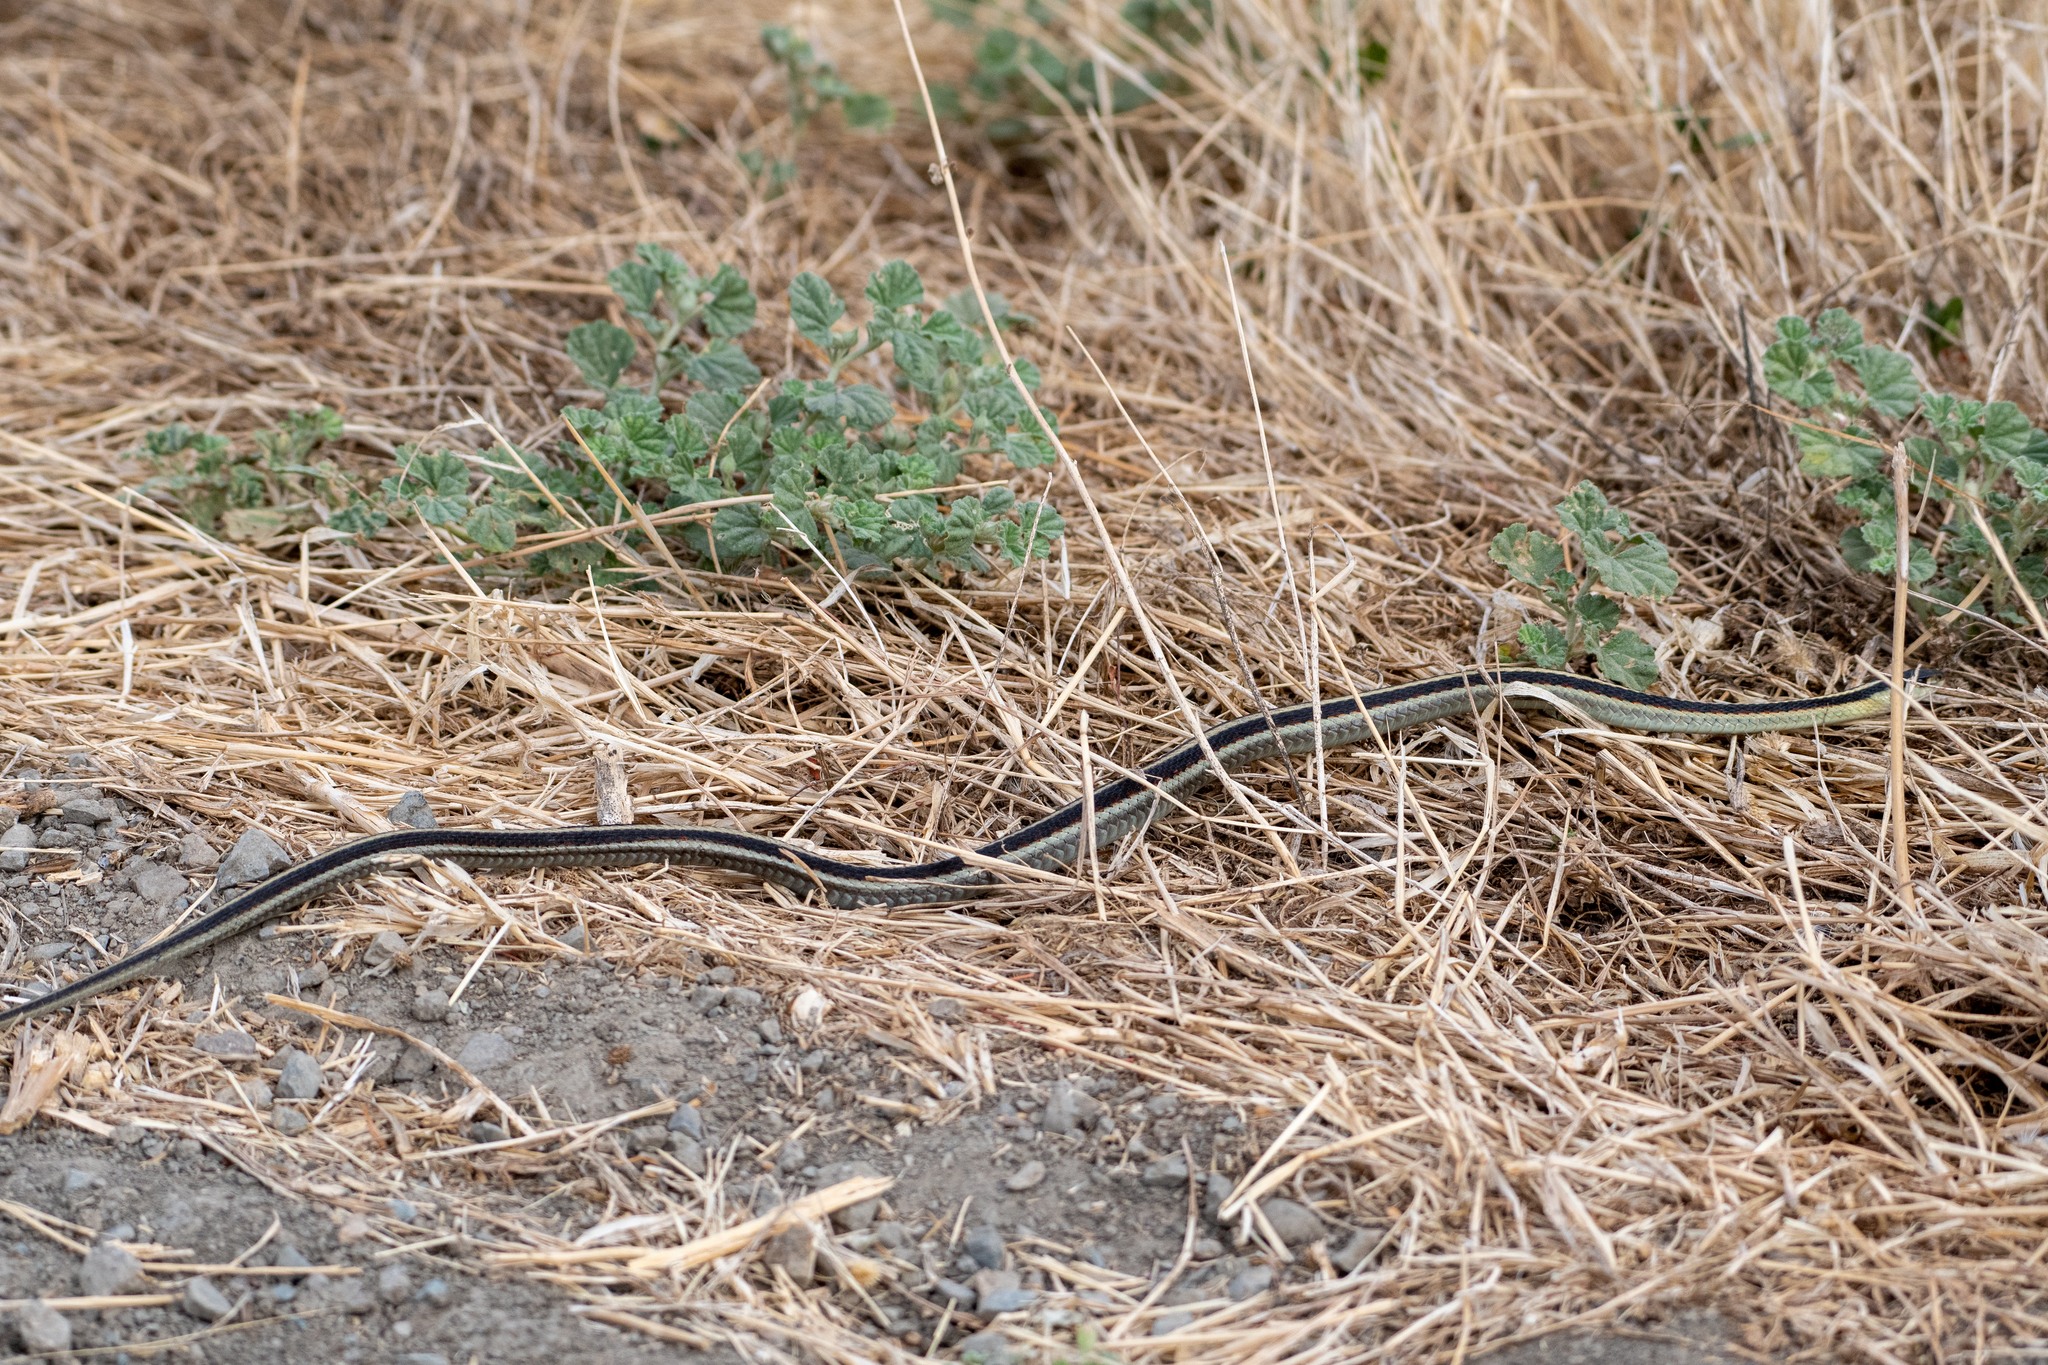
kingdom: Animalia
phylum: Chordata
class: Squamata
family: Colubridae
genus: Thamnophis
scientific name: Thamnophis sirtalis
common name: Common garter snake
